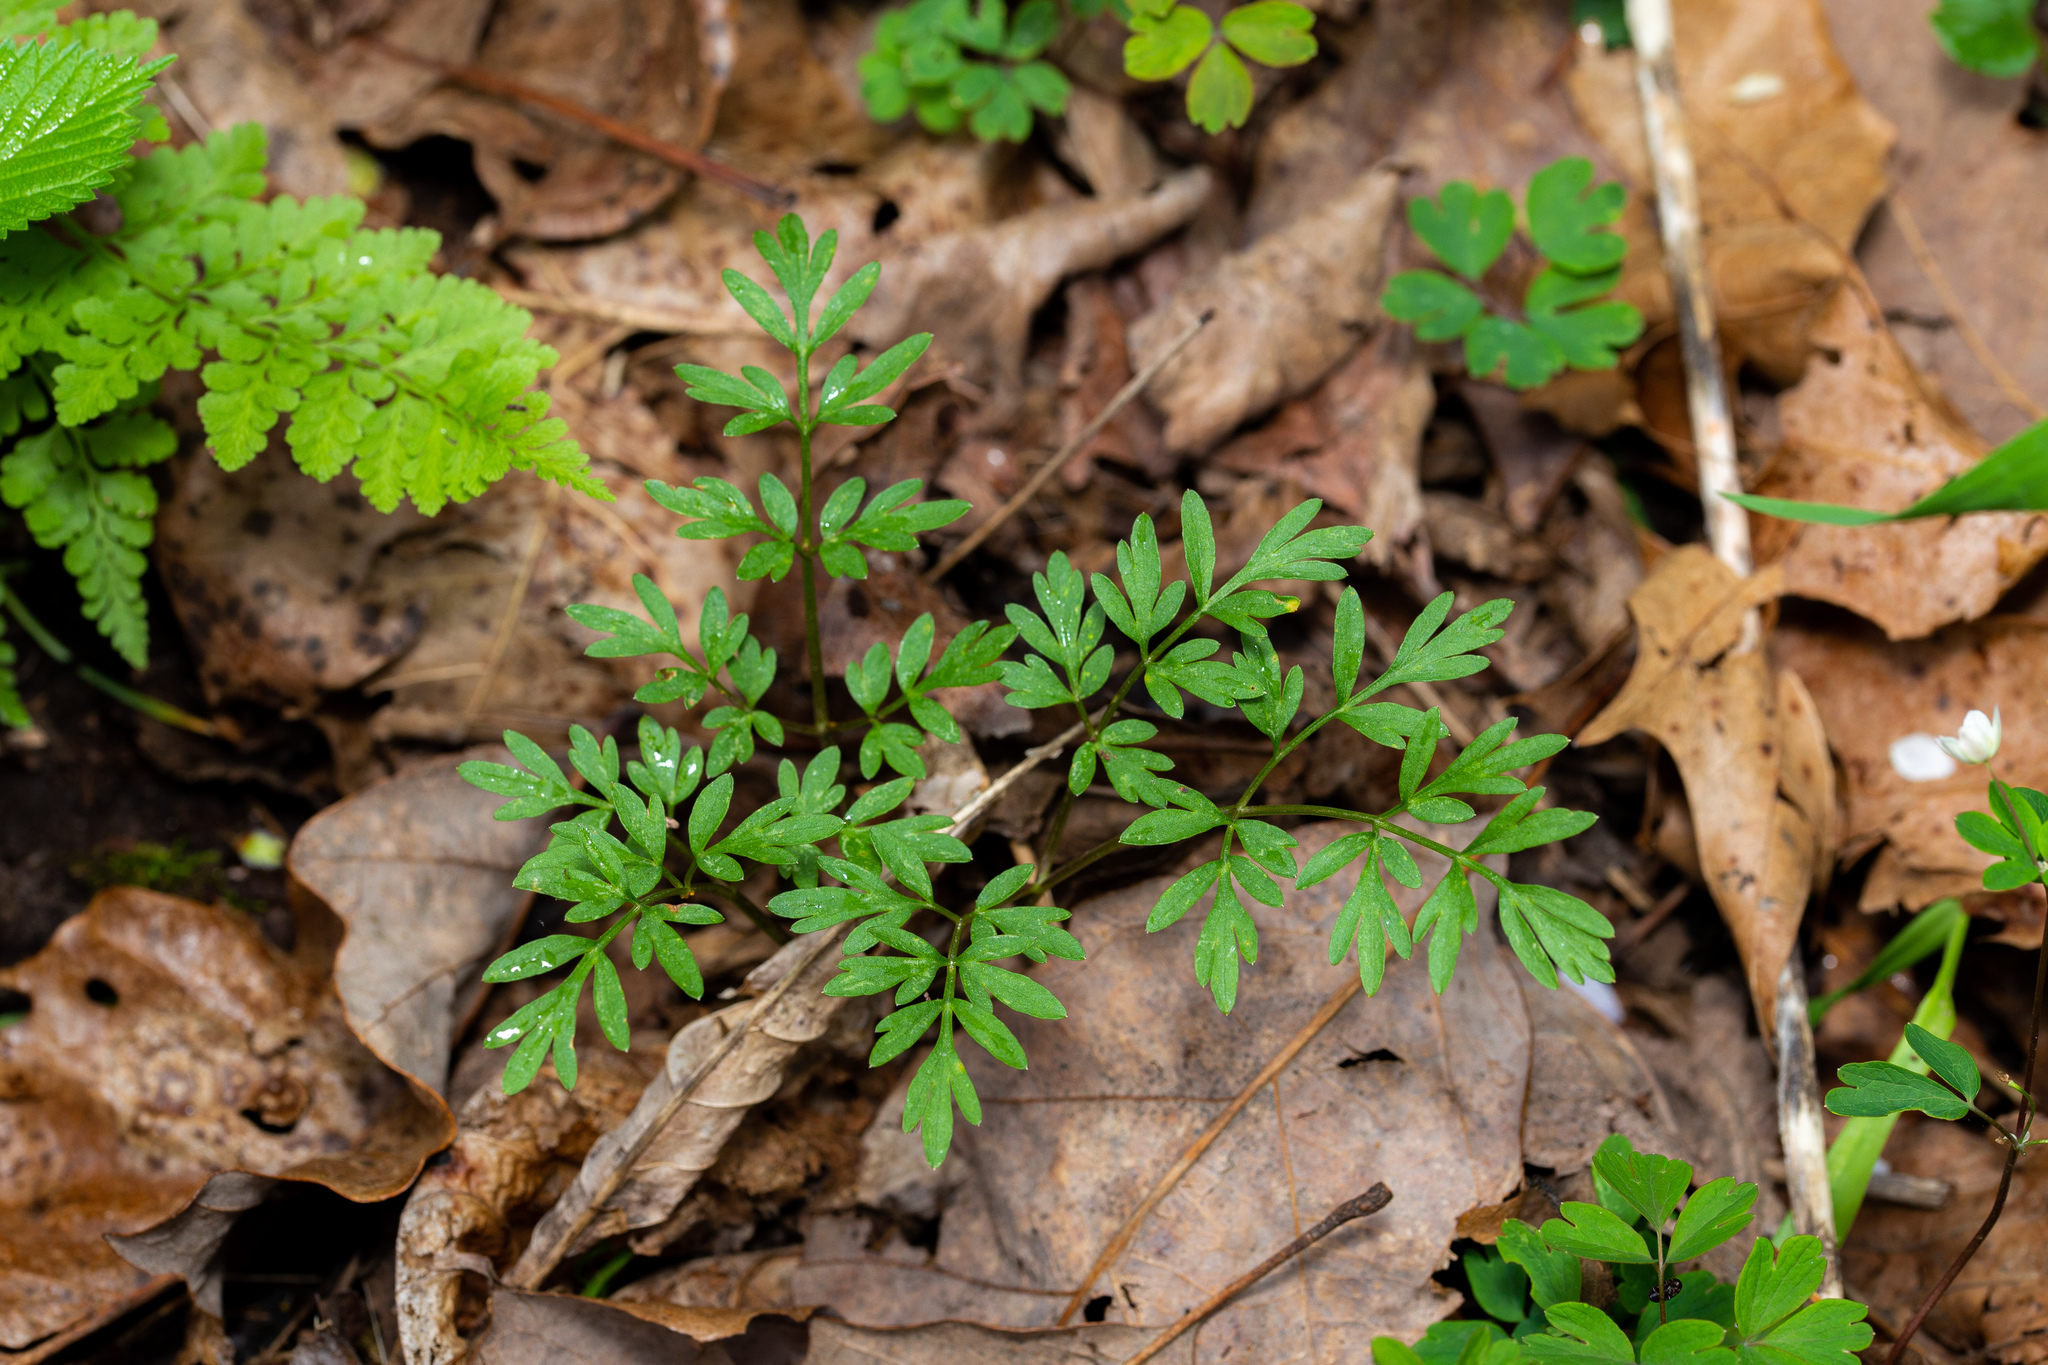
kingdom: Plantae
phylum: Tracheophyta
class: Magnoliopsida
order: Apiales
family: Apiaceae
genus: Erigenia
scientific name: Erigenia bulbosa
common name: Pepper-and-salt
